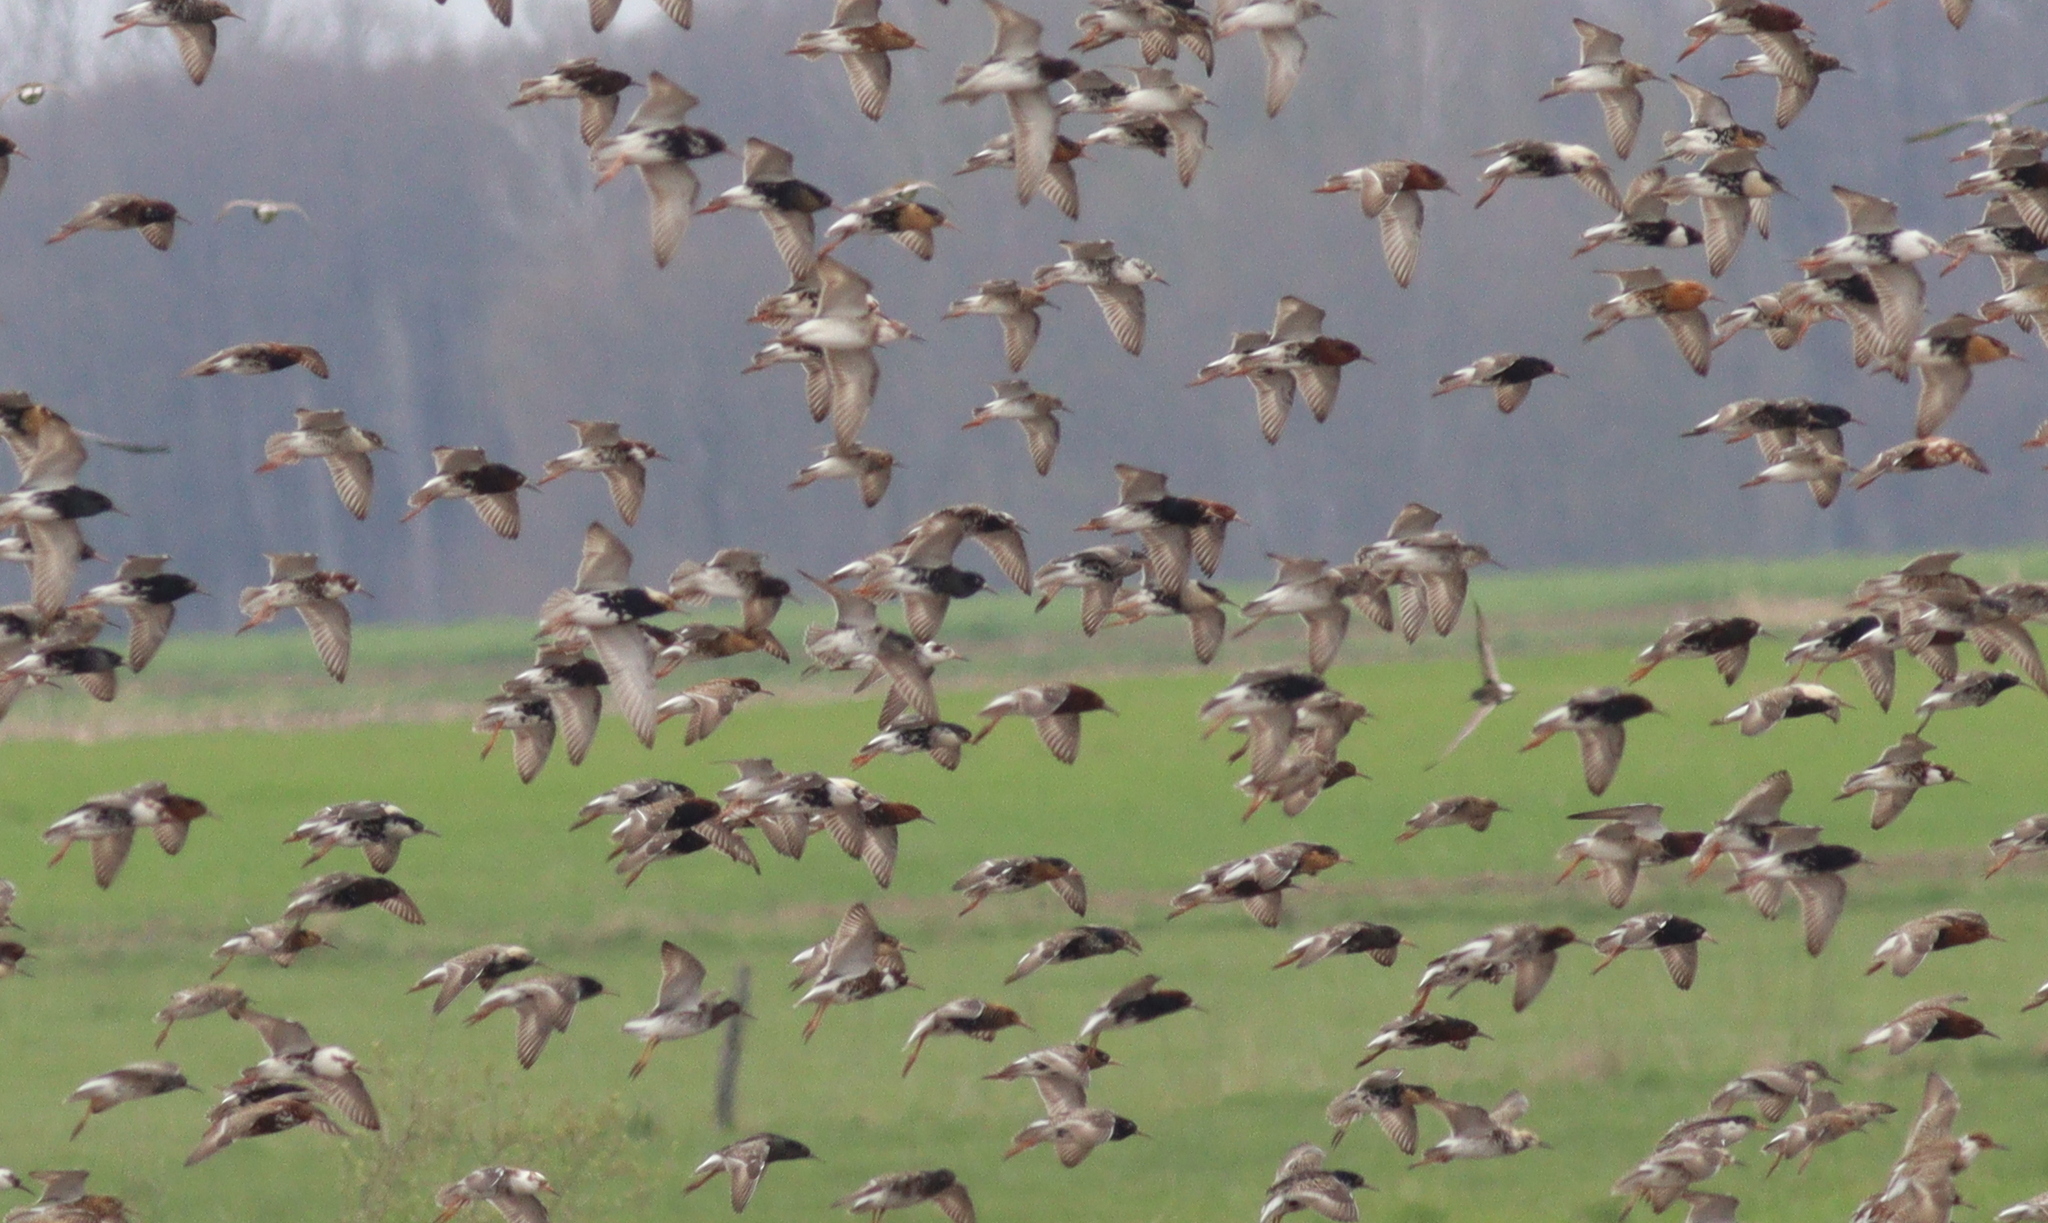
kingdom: Animalia
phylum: Chordata
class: Aves
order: Charadriiformes
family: Scolopacidae
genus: Calidris
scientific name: Calidris pugnax
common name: Ruff
